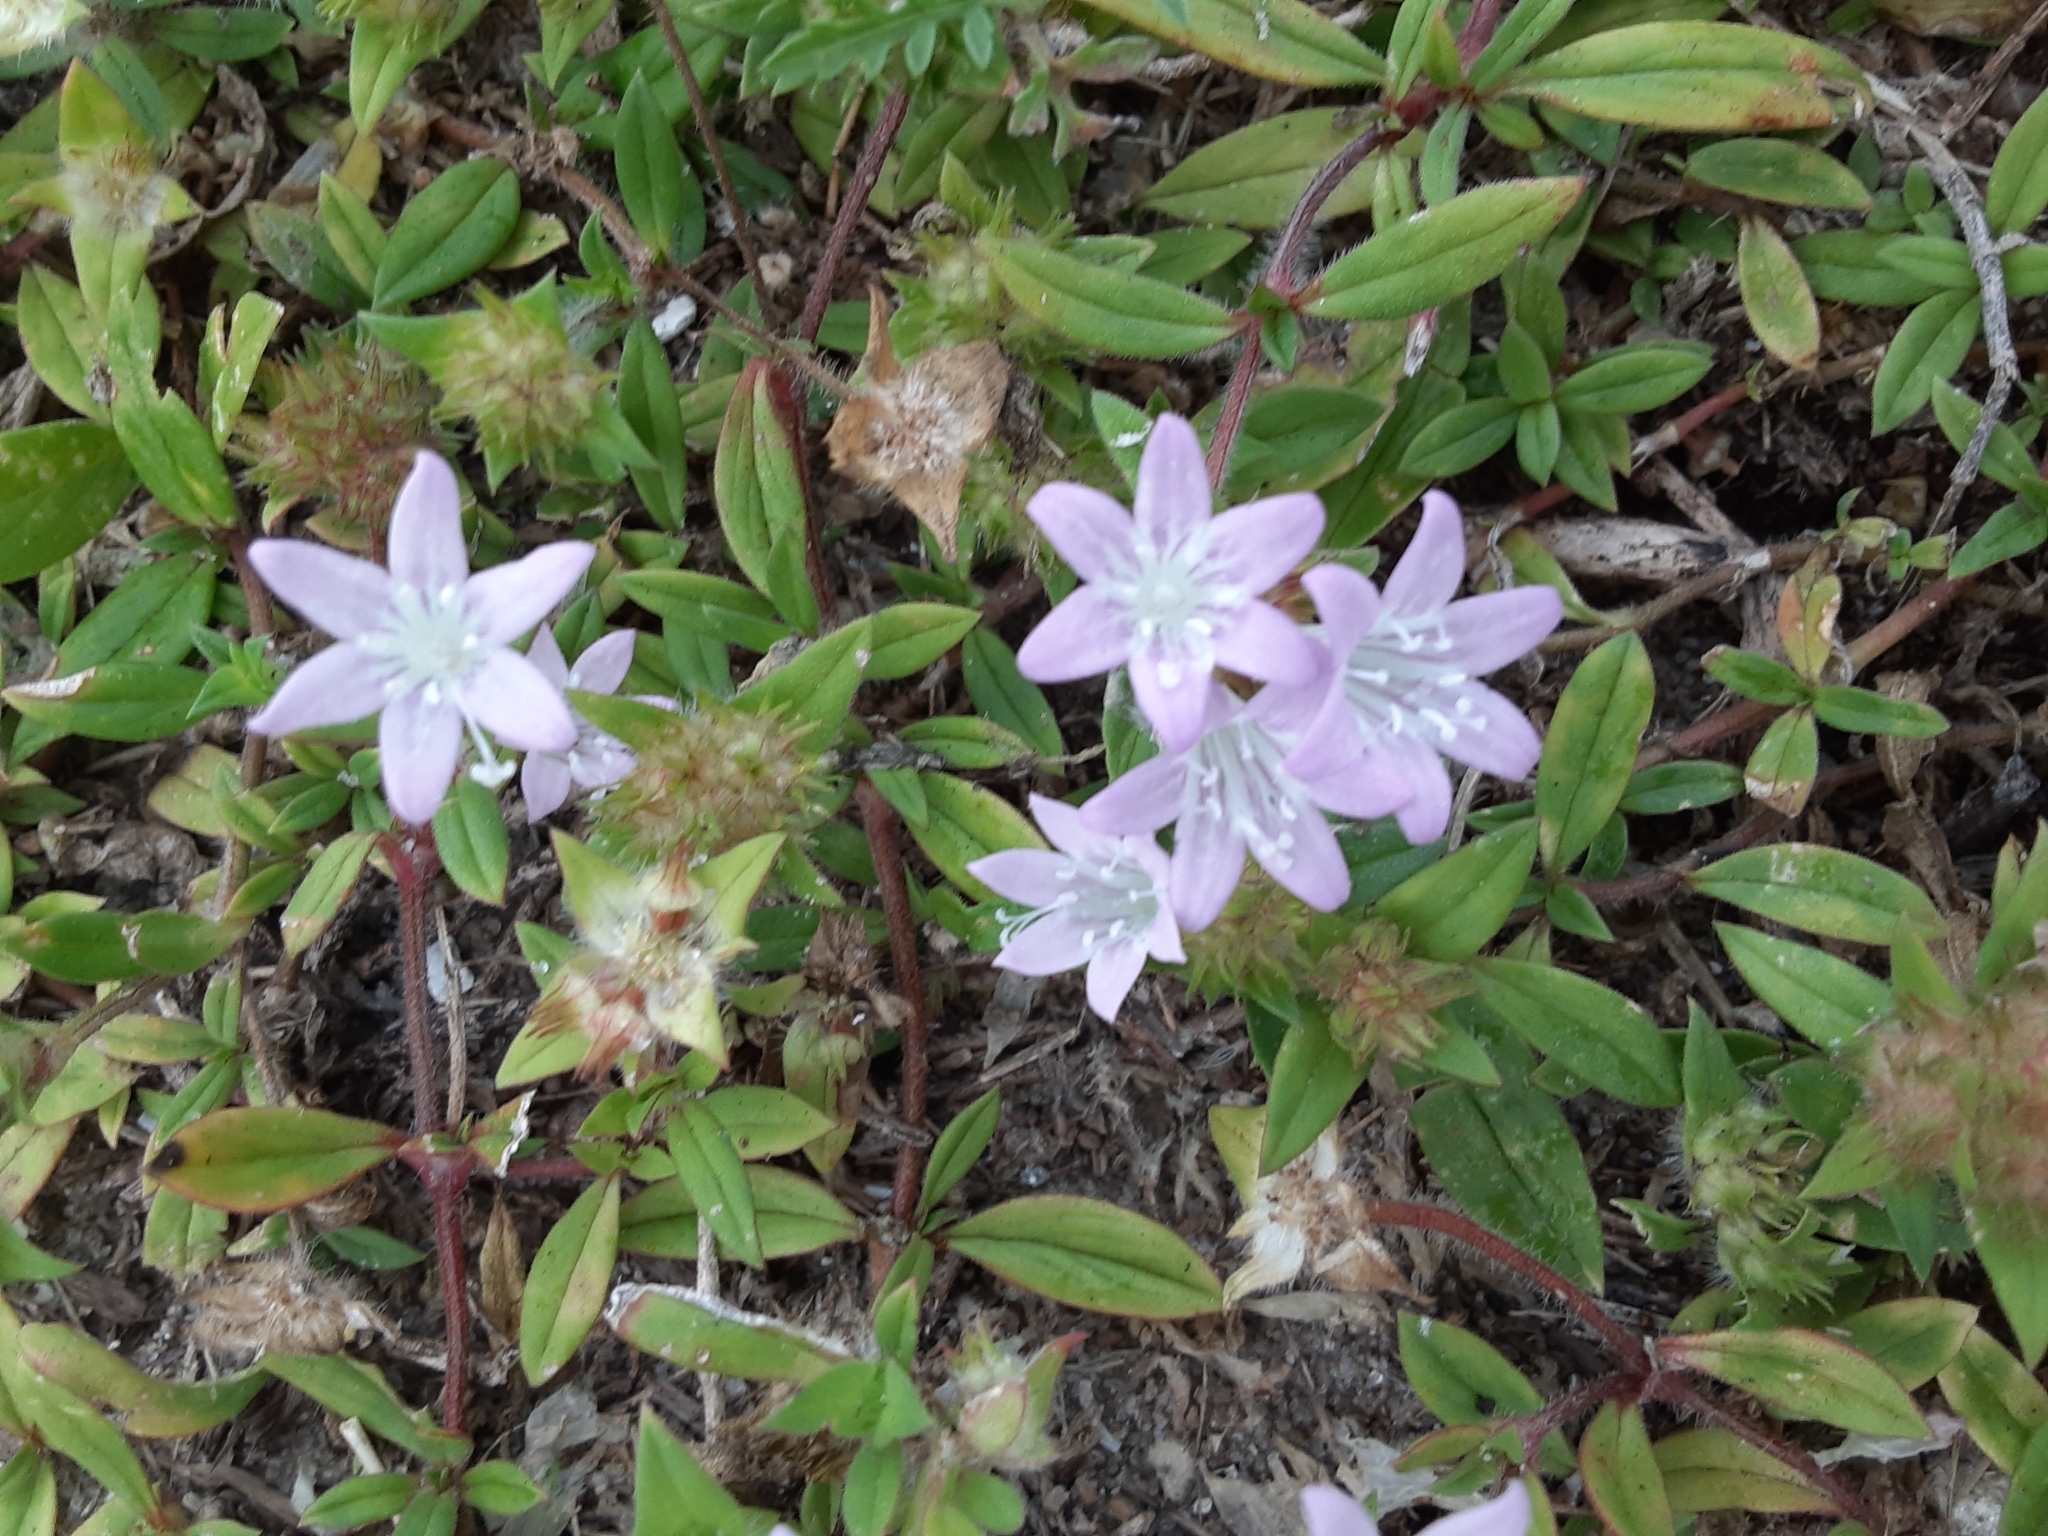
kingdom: Plantae
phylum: Tracheophyta
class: Magnoliopsida
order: Gentianales
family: Rubiaceae
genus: Richardia
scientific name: Richardia grandiflora
